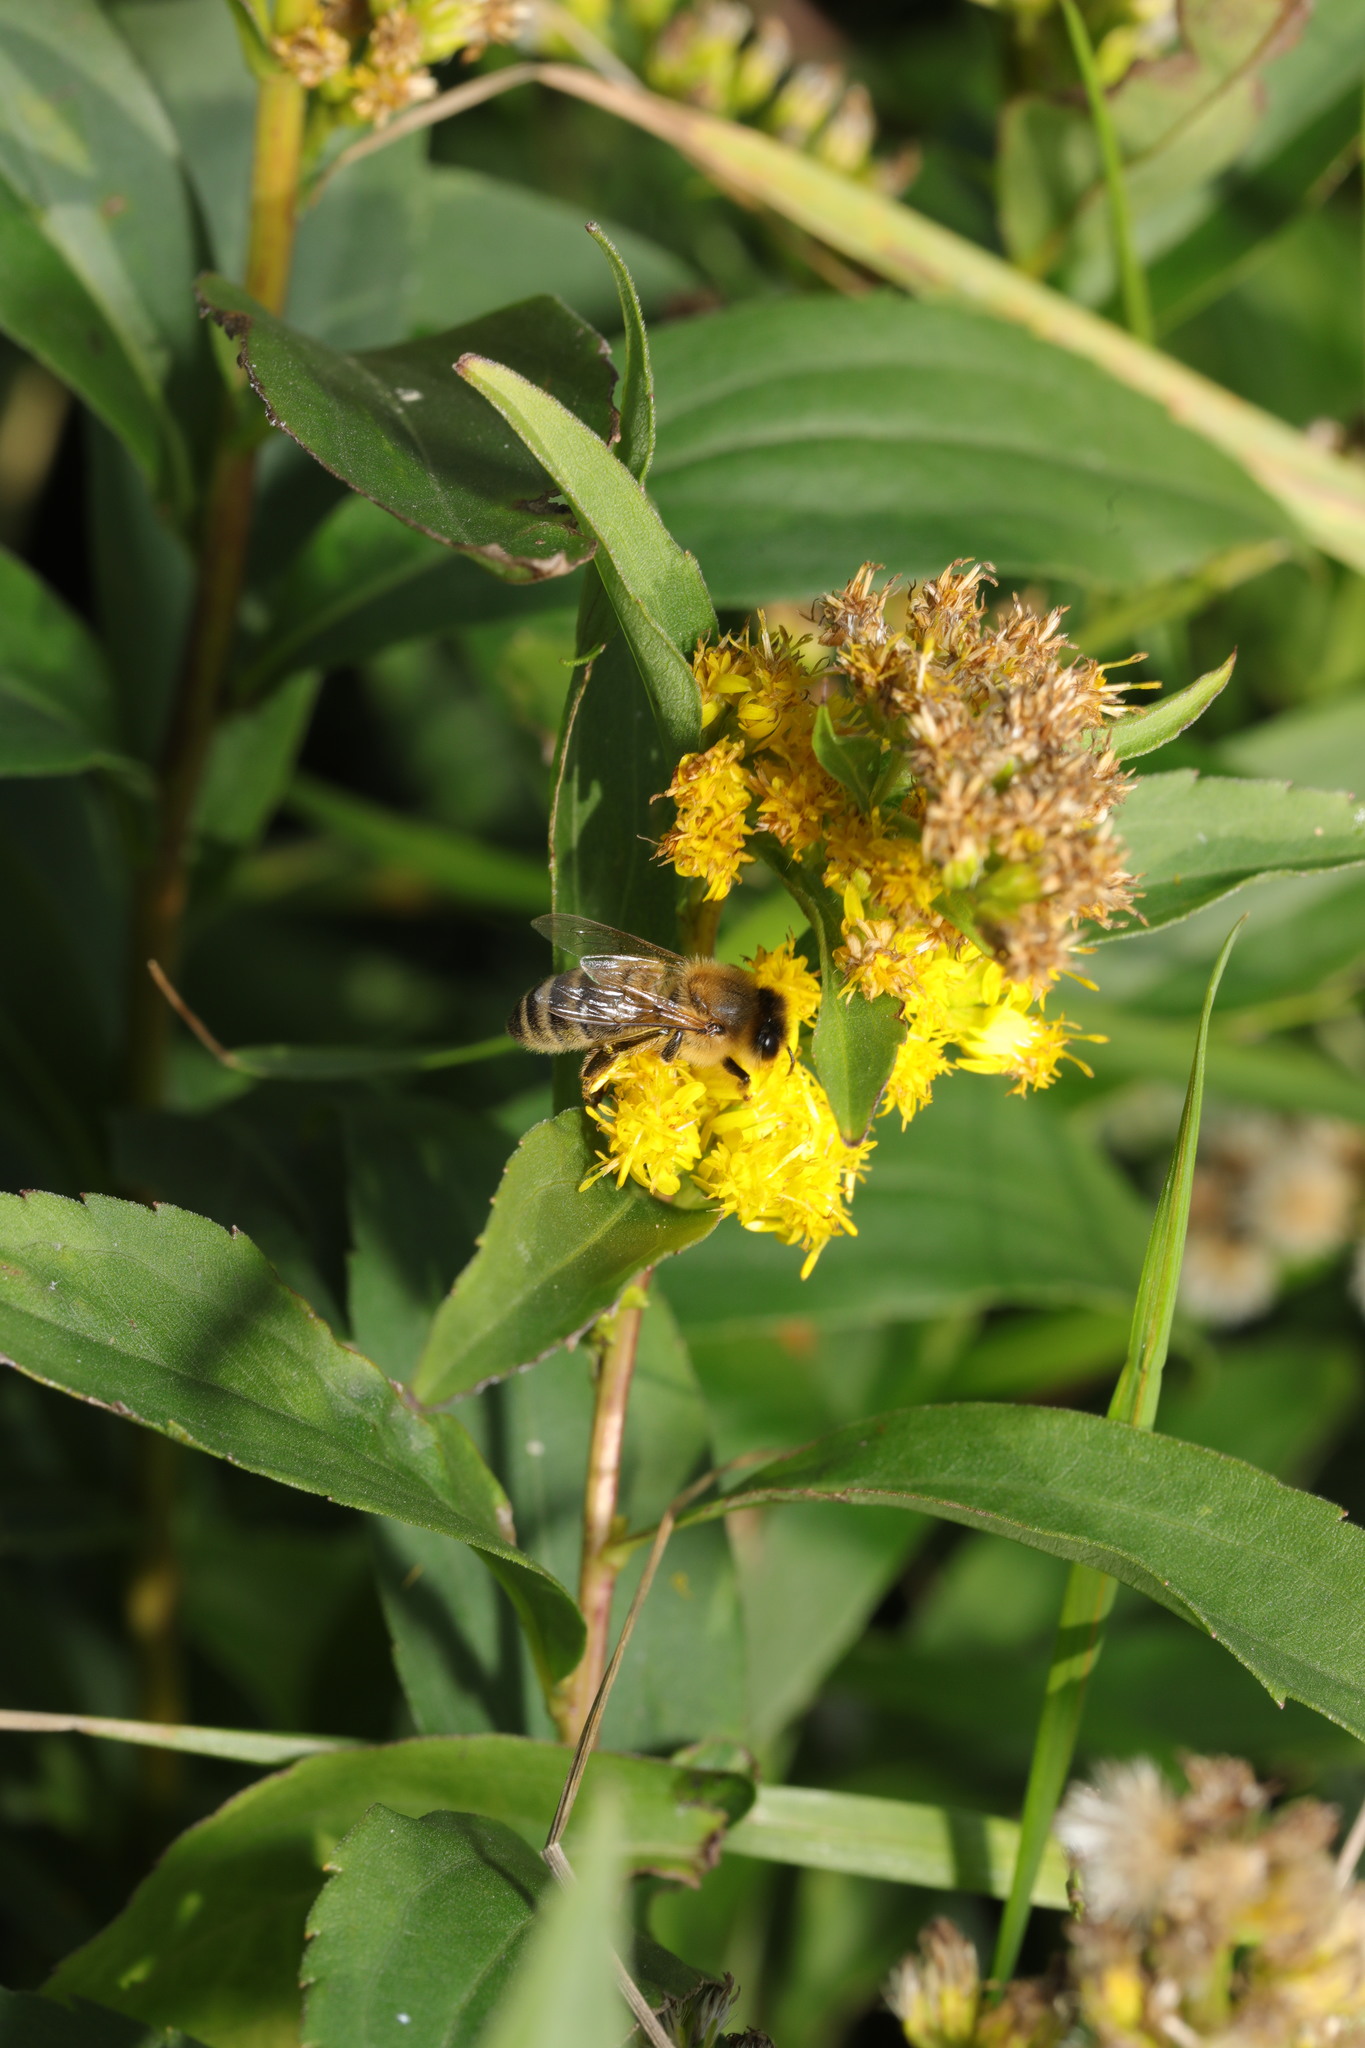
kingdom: Animalia
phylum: Arthropoda
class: Insecta
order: Hymenoptera
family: Apidae
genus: Apis
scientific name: Apis mellifera
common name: Honey bee
